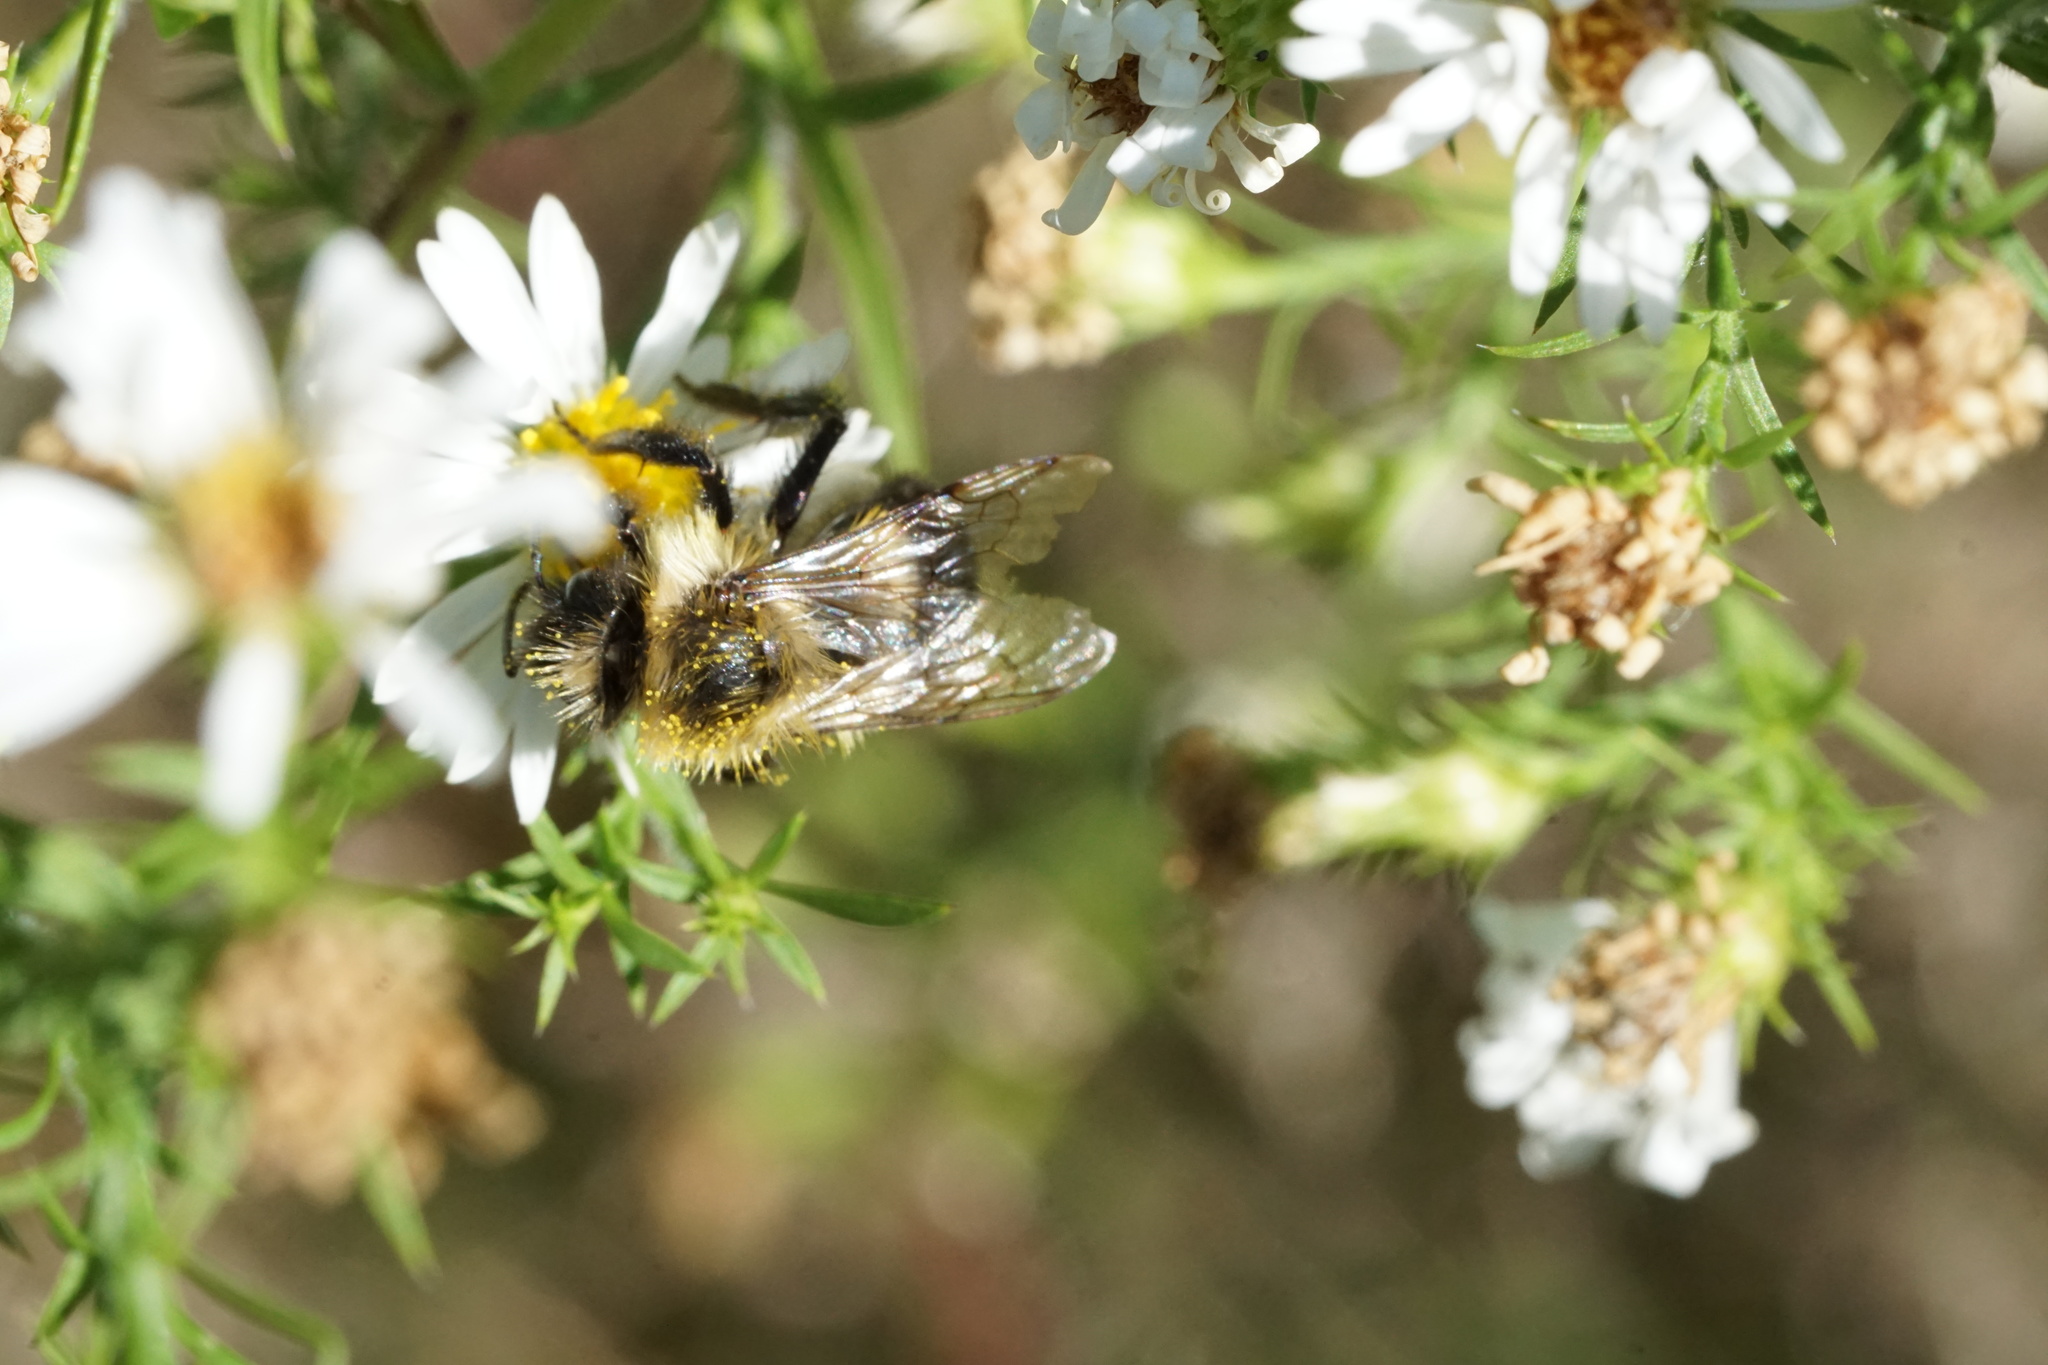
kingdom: Animalia
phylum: Arthropoda
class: Insecta
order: Hymenoptera
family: Apidae
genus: Bombus
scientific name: Bombus impatiens
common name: Common eastern bumble bee
